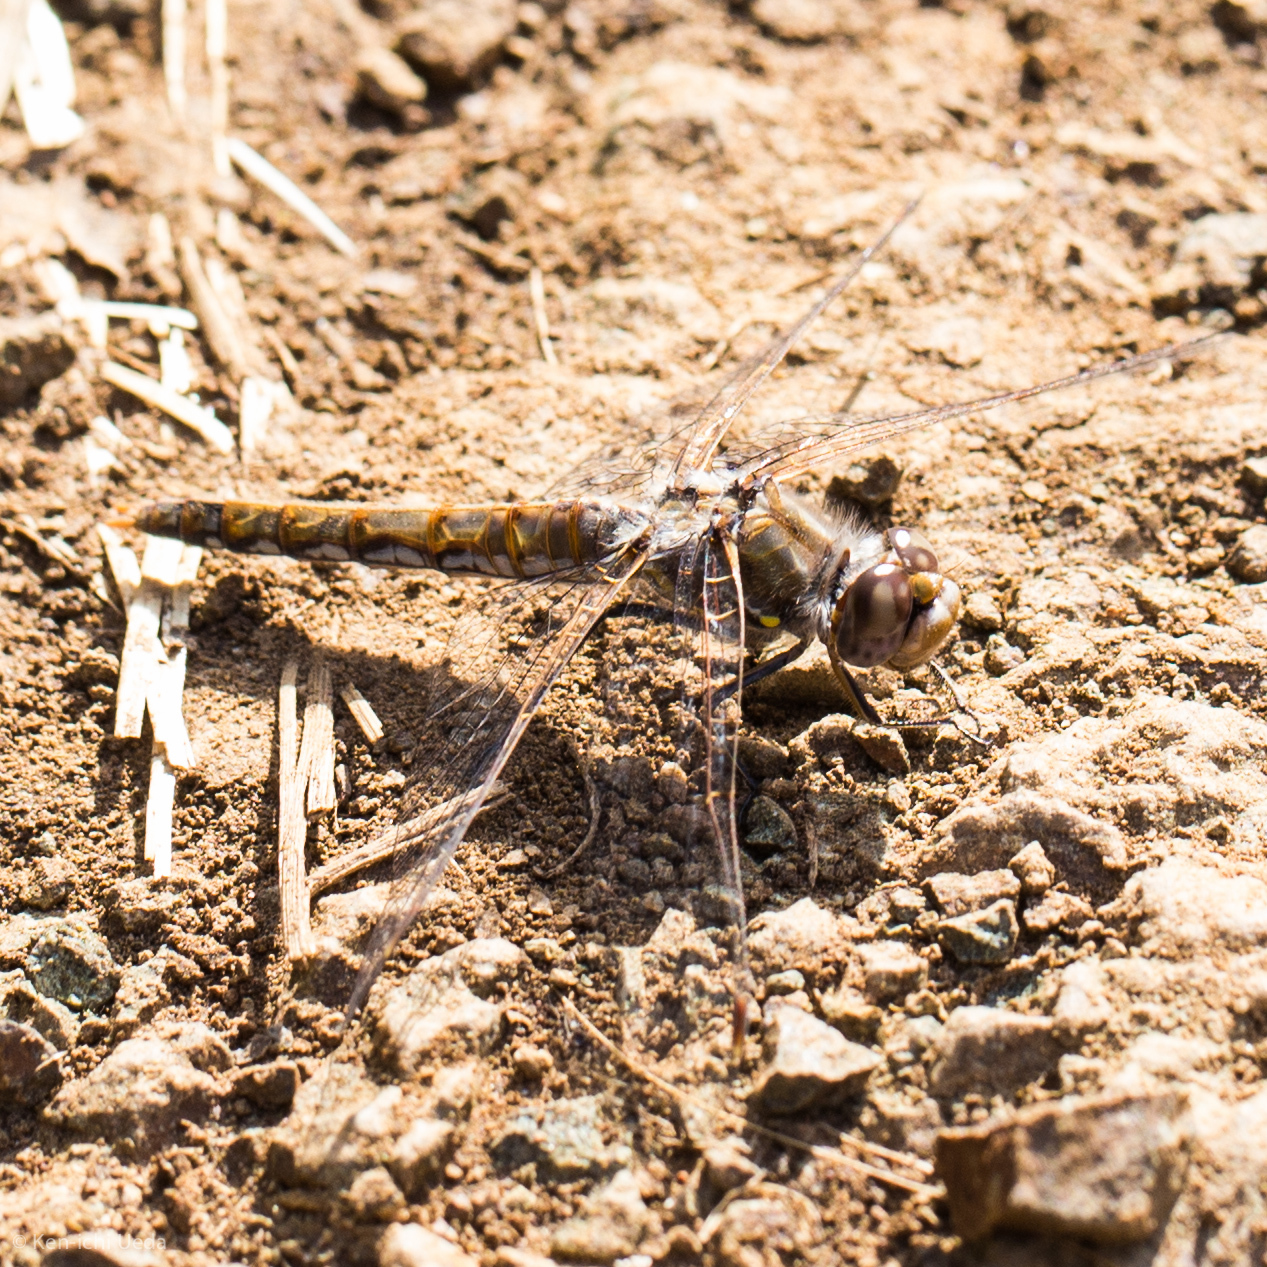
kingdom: Animalia
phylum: Arthropoda
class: Insecta
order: Odonata
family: Libellulidae
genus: Sympetrum
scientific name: Sympetrum corruptum
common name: Variegated meadowhawk
